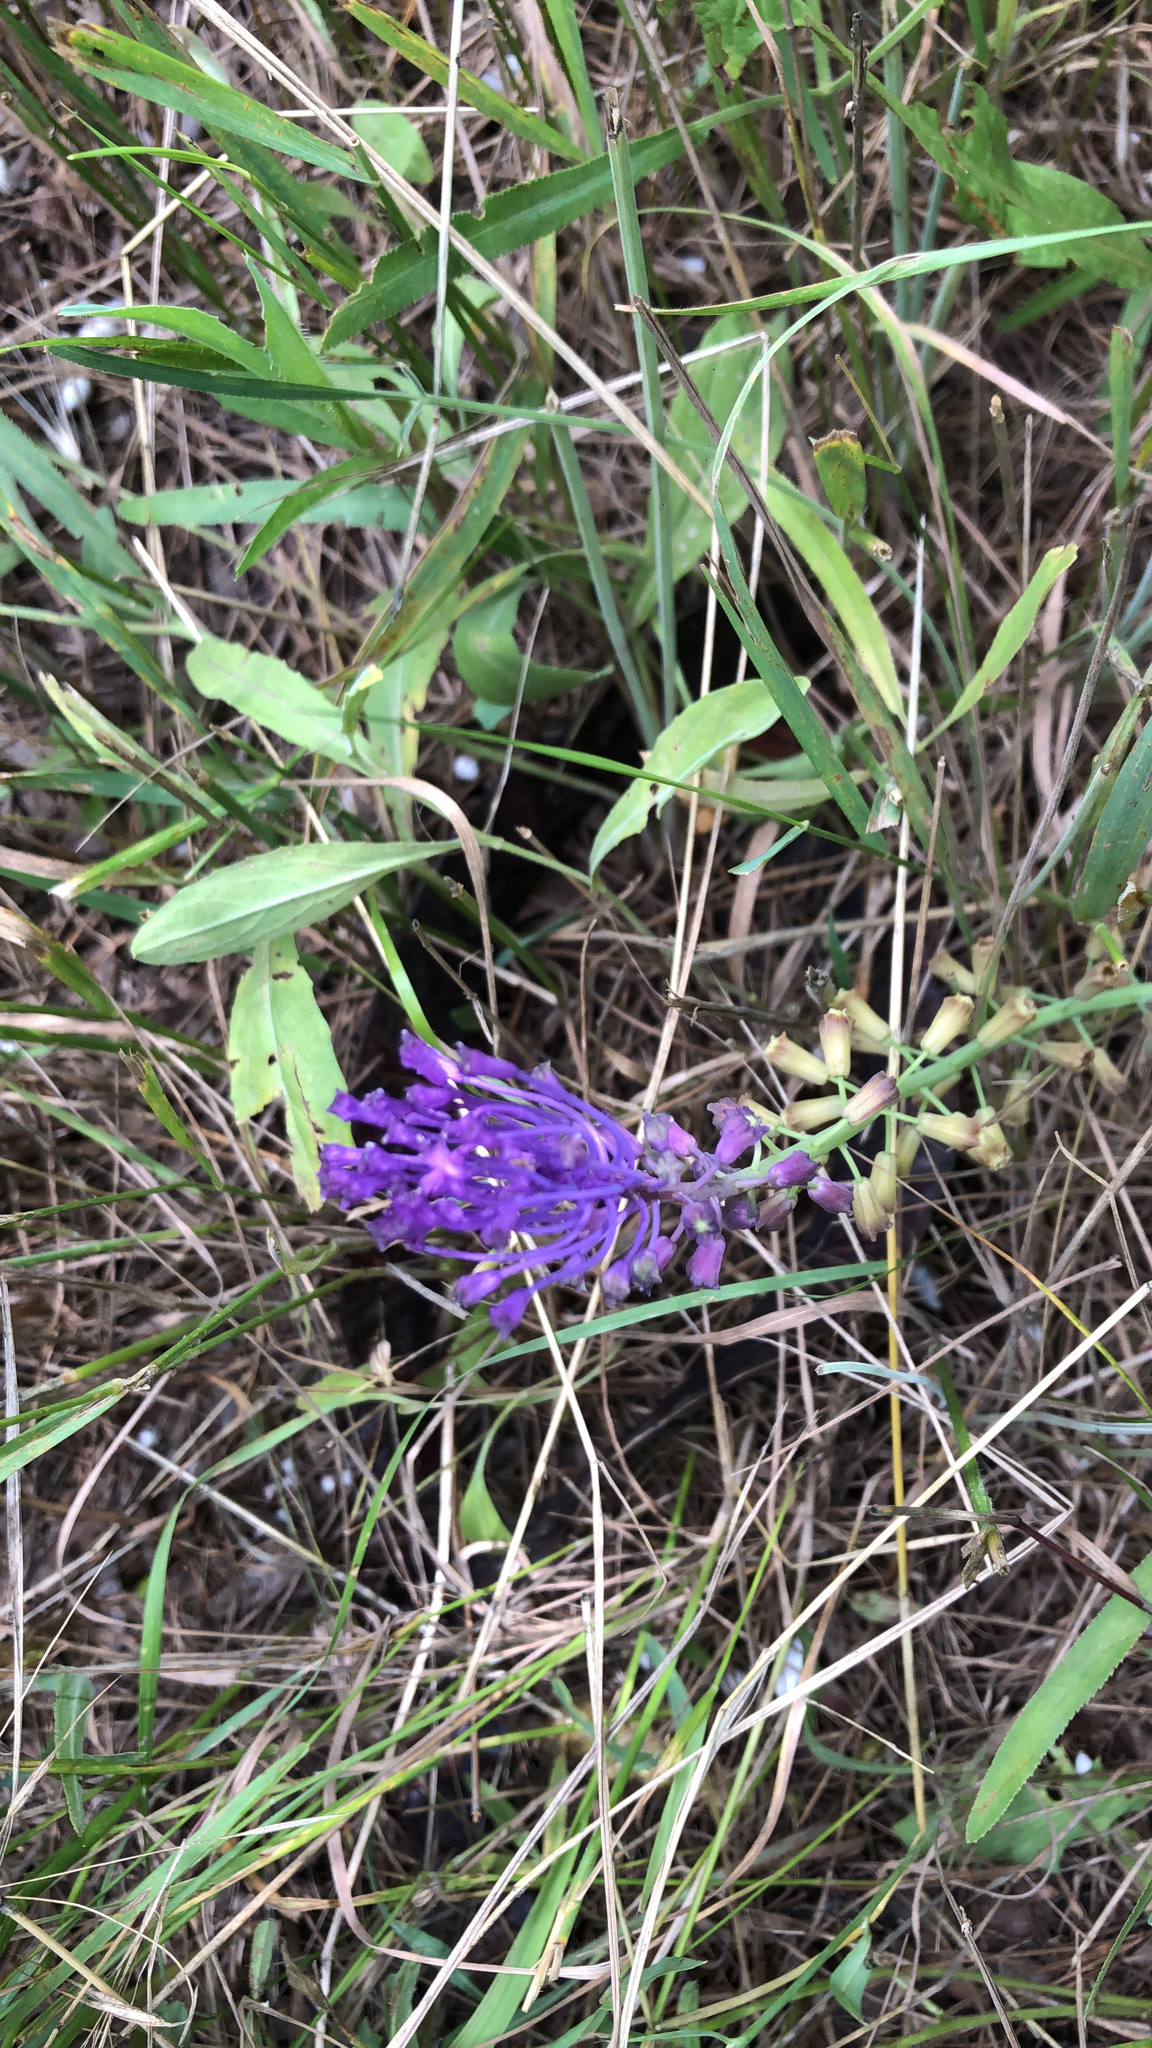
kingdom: Plantae
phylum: Tracheophyta
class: Liliopsida
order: Asparagales
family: Asparagaceae
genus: Muscari
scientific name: Muscari comosum
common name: Tassel hyacinth
